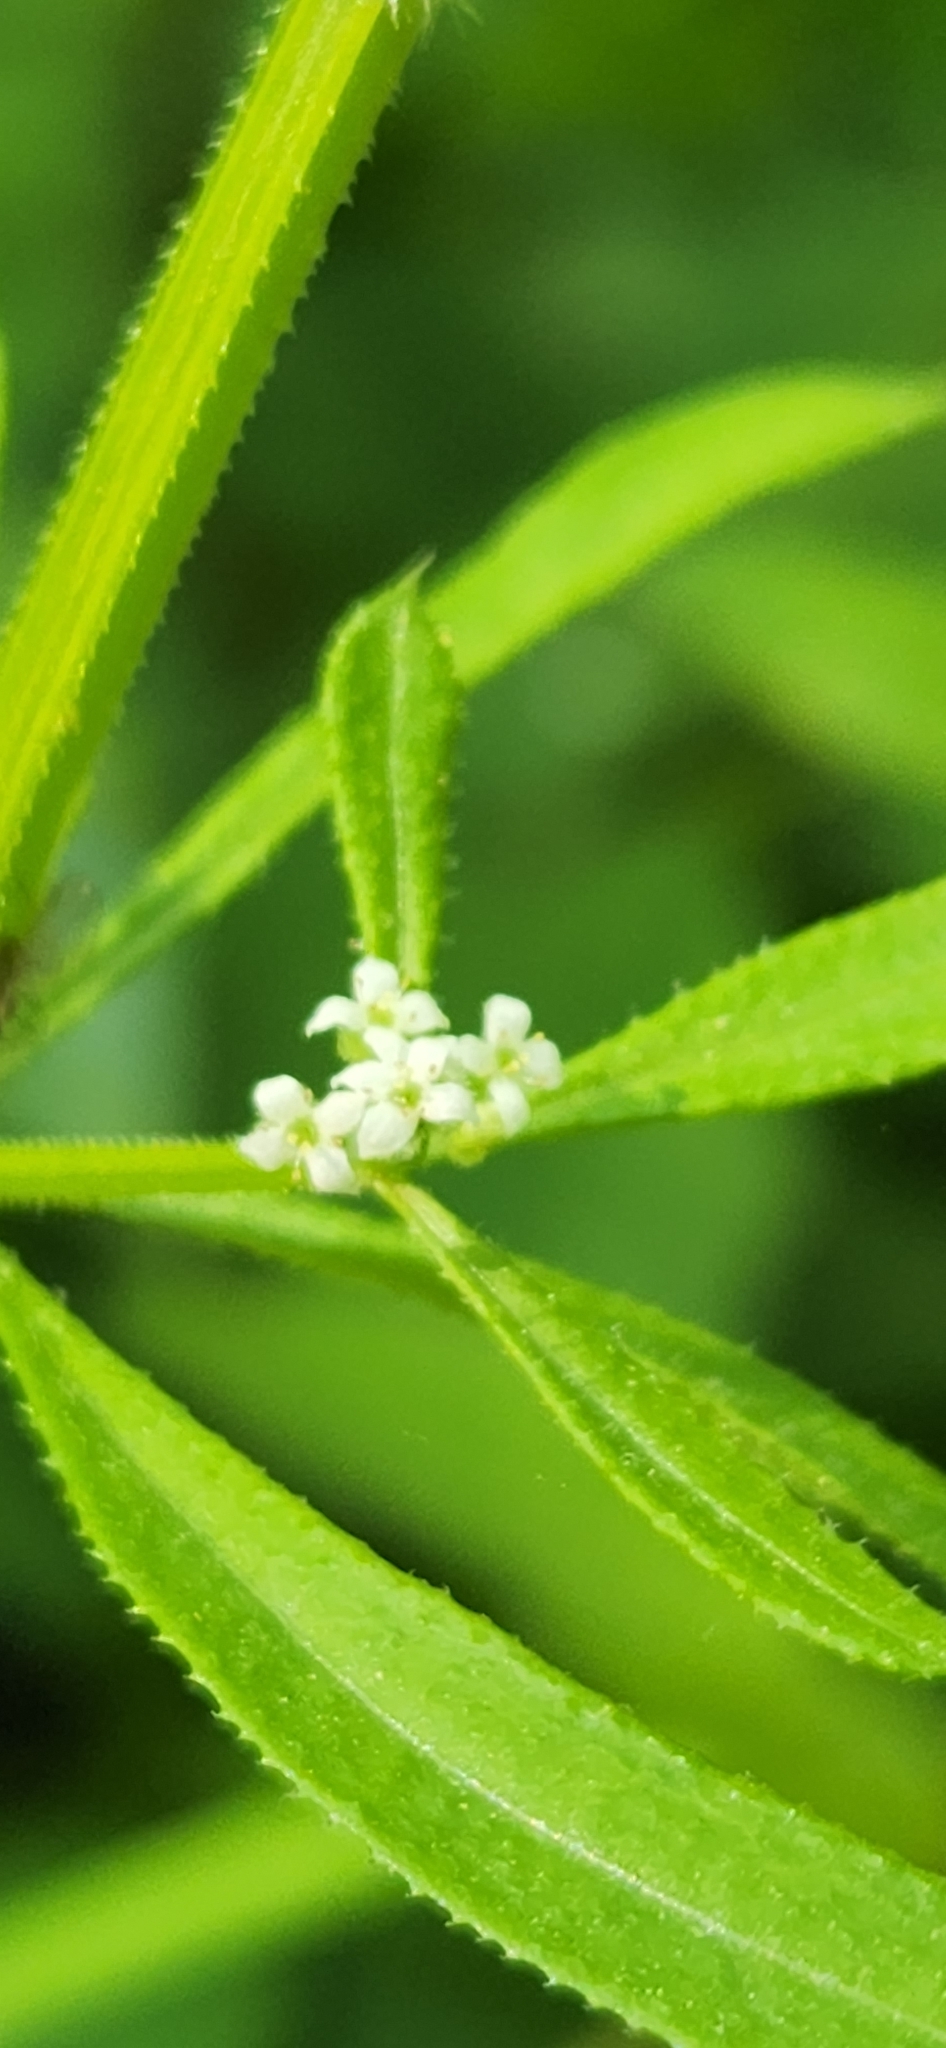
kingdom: Plantae
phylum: Tracheophyta
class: Magnoliopsida
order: Gentianales
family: Rubiaceae
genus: Galium
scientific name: Galium aparine
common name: Cleavers
